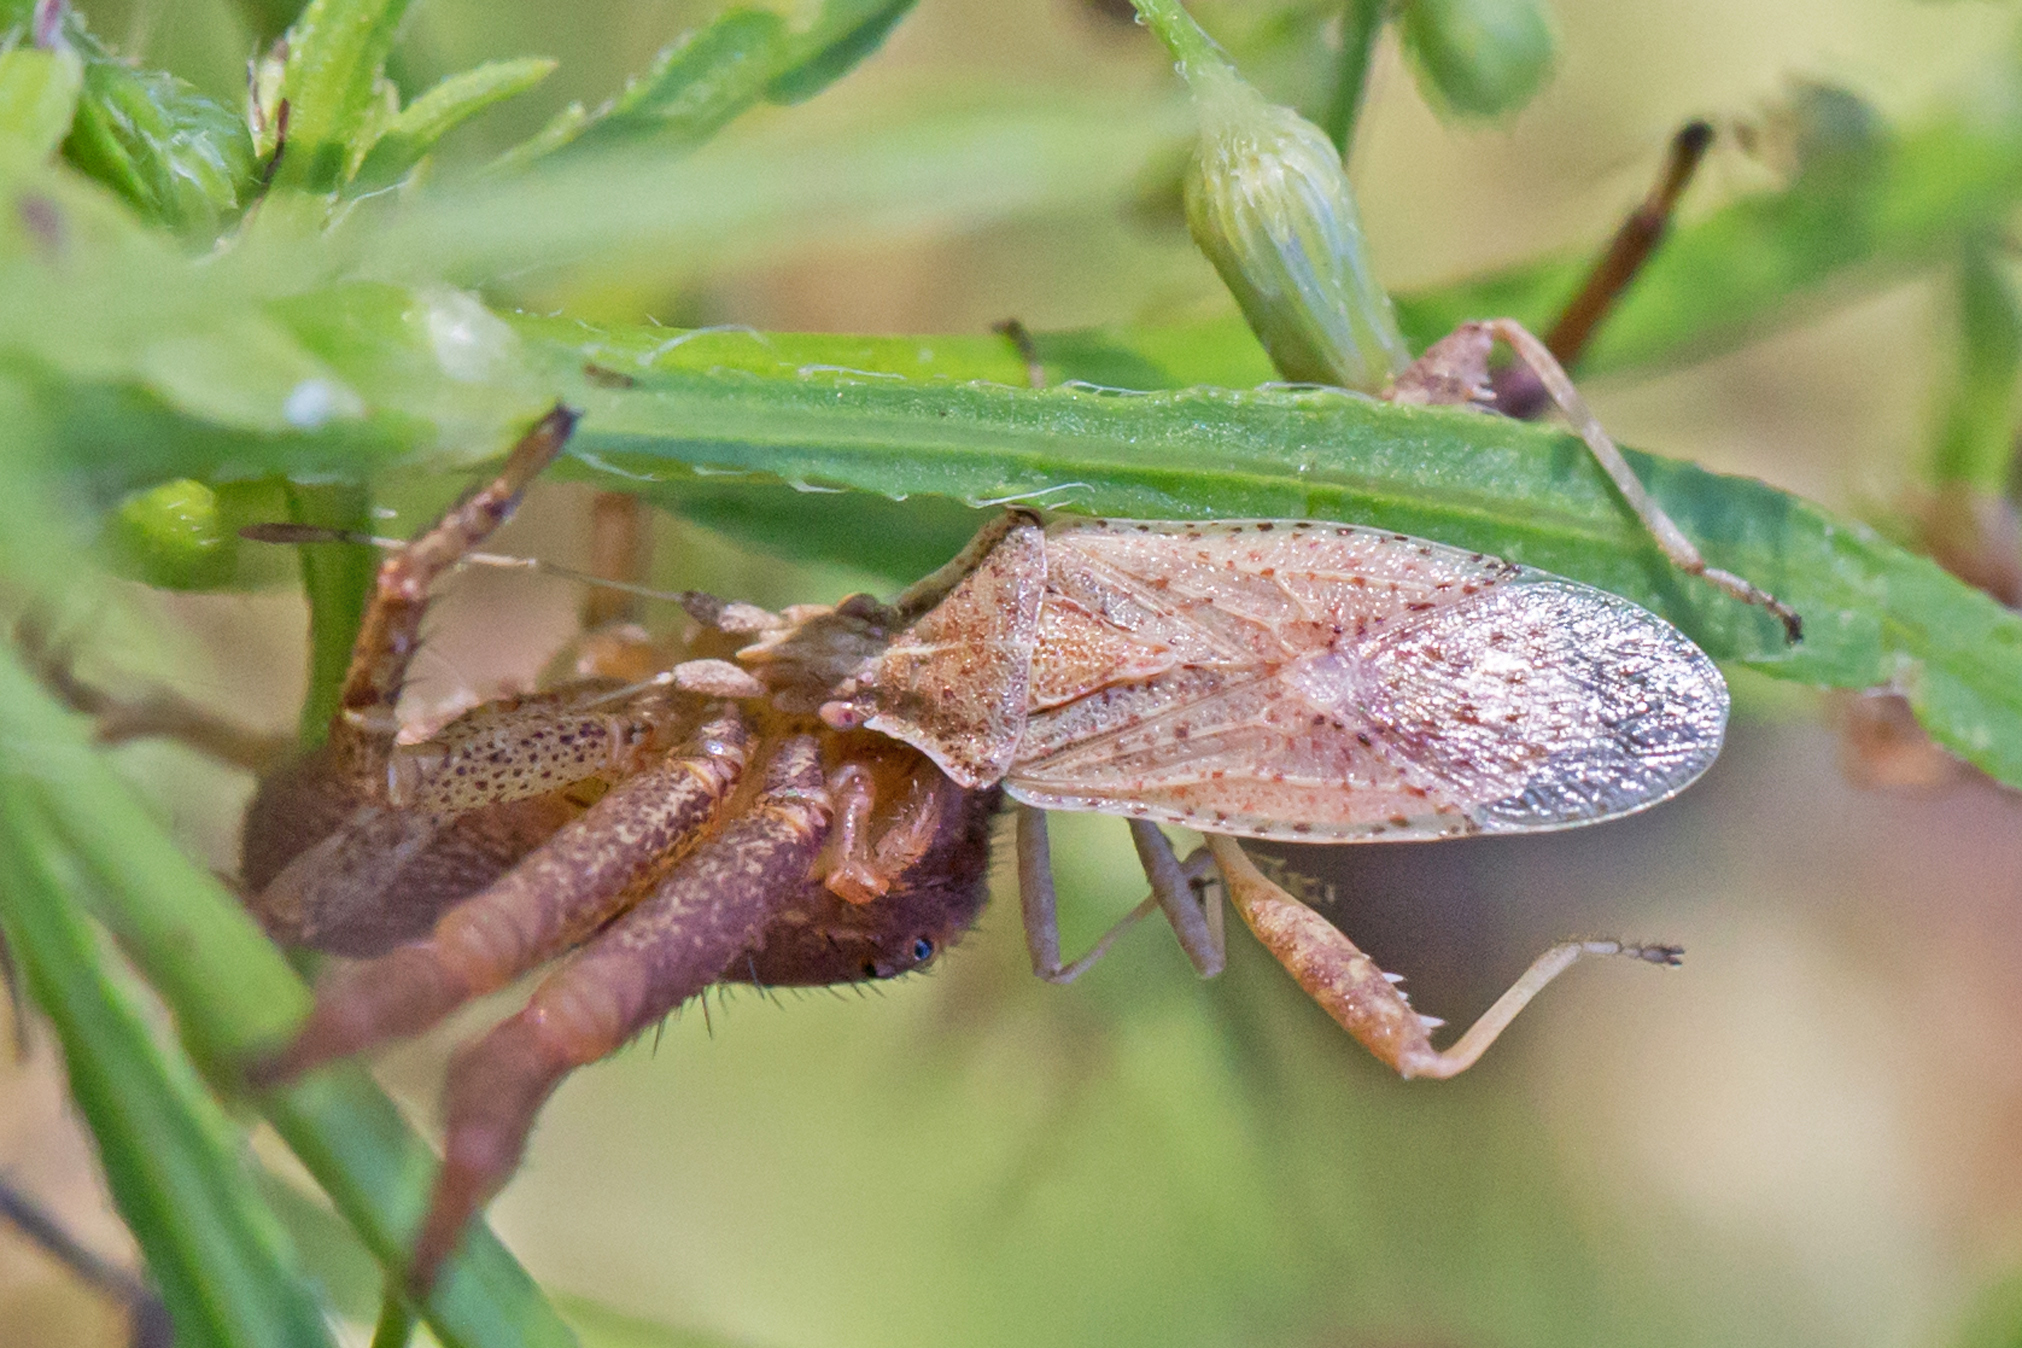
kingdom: Animalia
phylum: Arthropoda
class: Insecta
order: Hemiptera
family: Rhopalidae
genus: Harmostes
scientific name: Harmostes reflexulus
